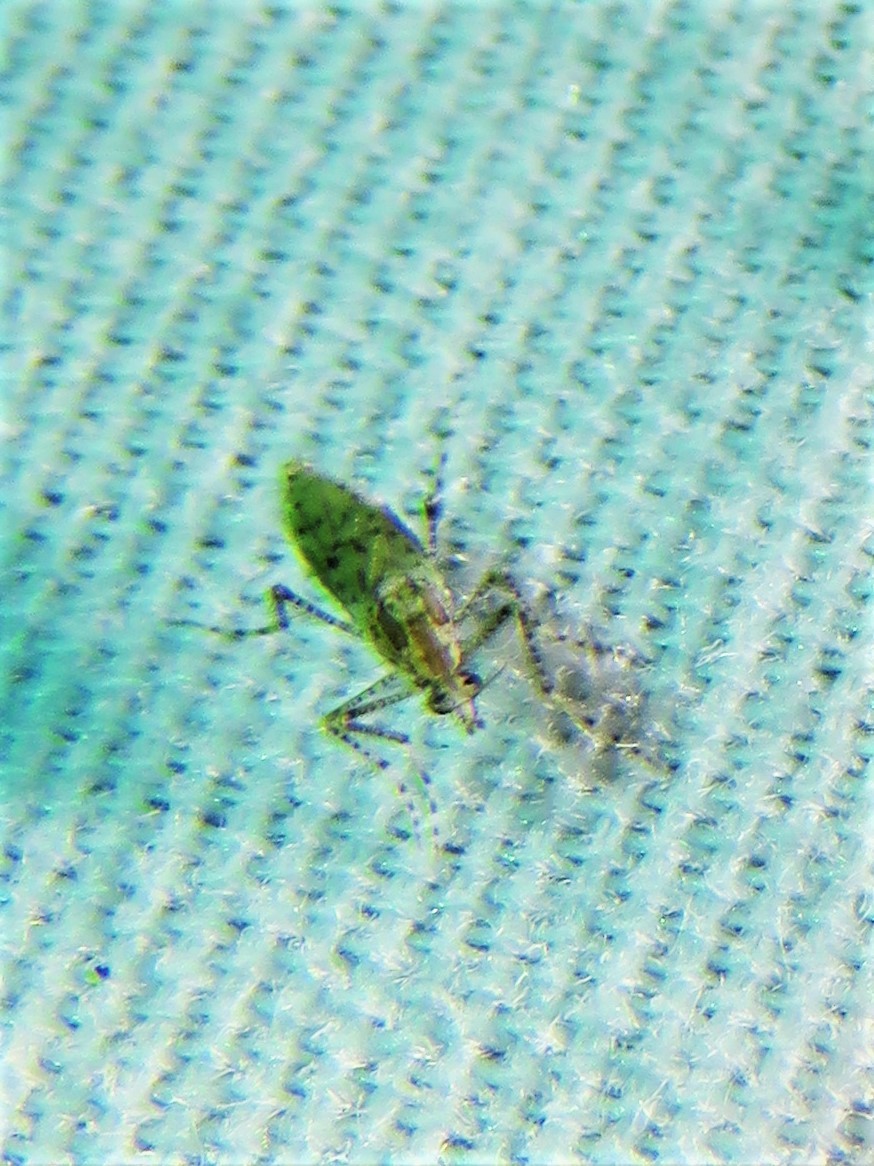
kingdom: Animalia
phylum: Arthropoda
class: Insecta
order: Diptera
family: Chaoboridae
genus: Chaoborus
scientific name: Chaoborus punctipennis
